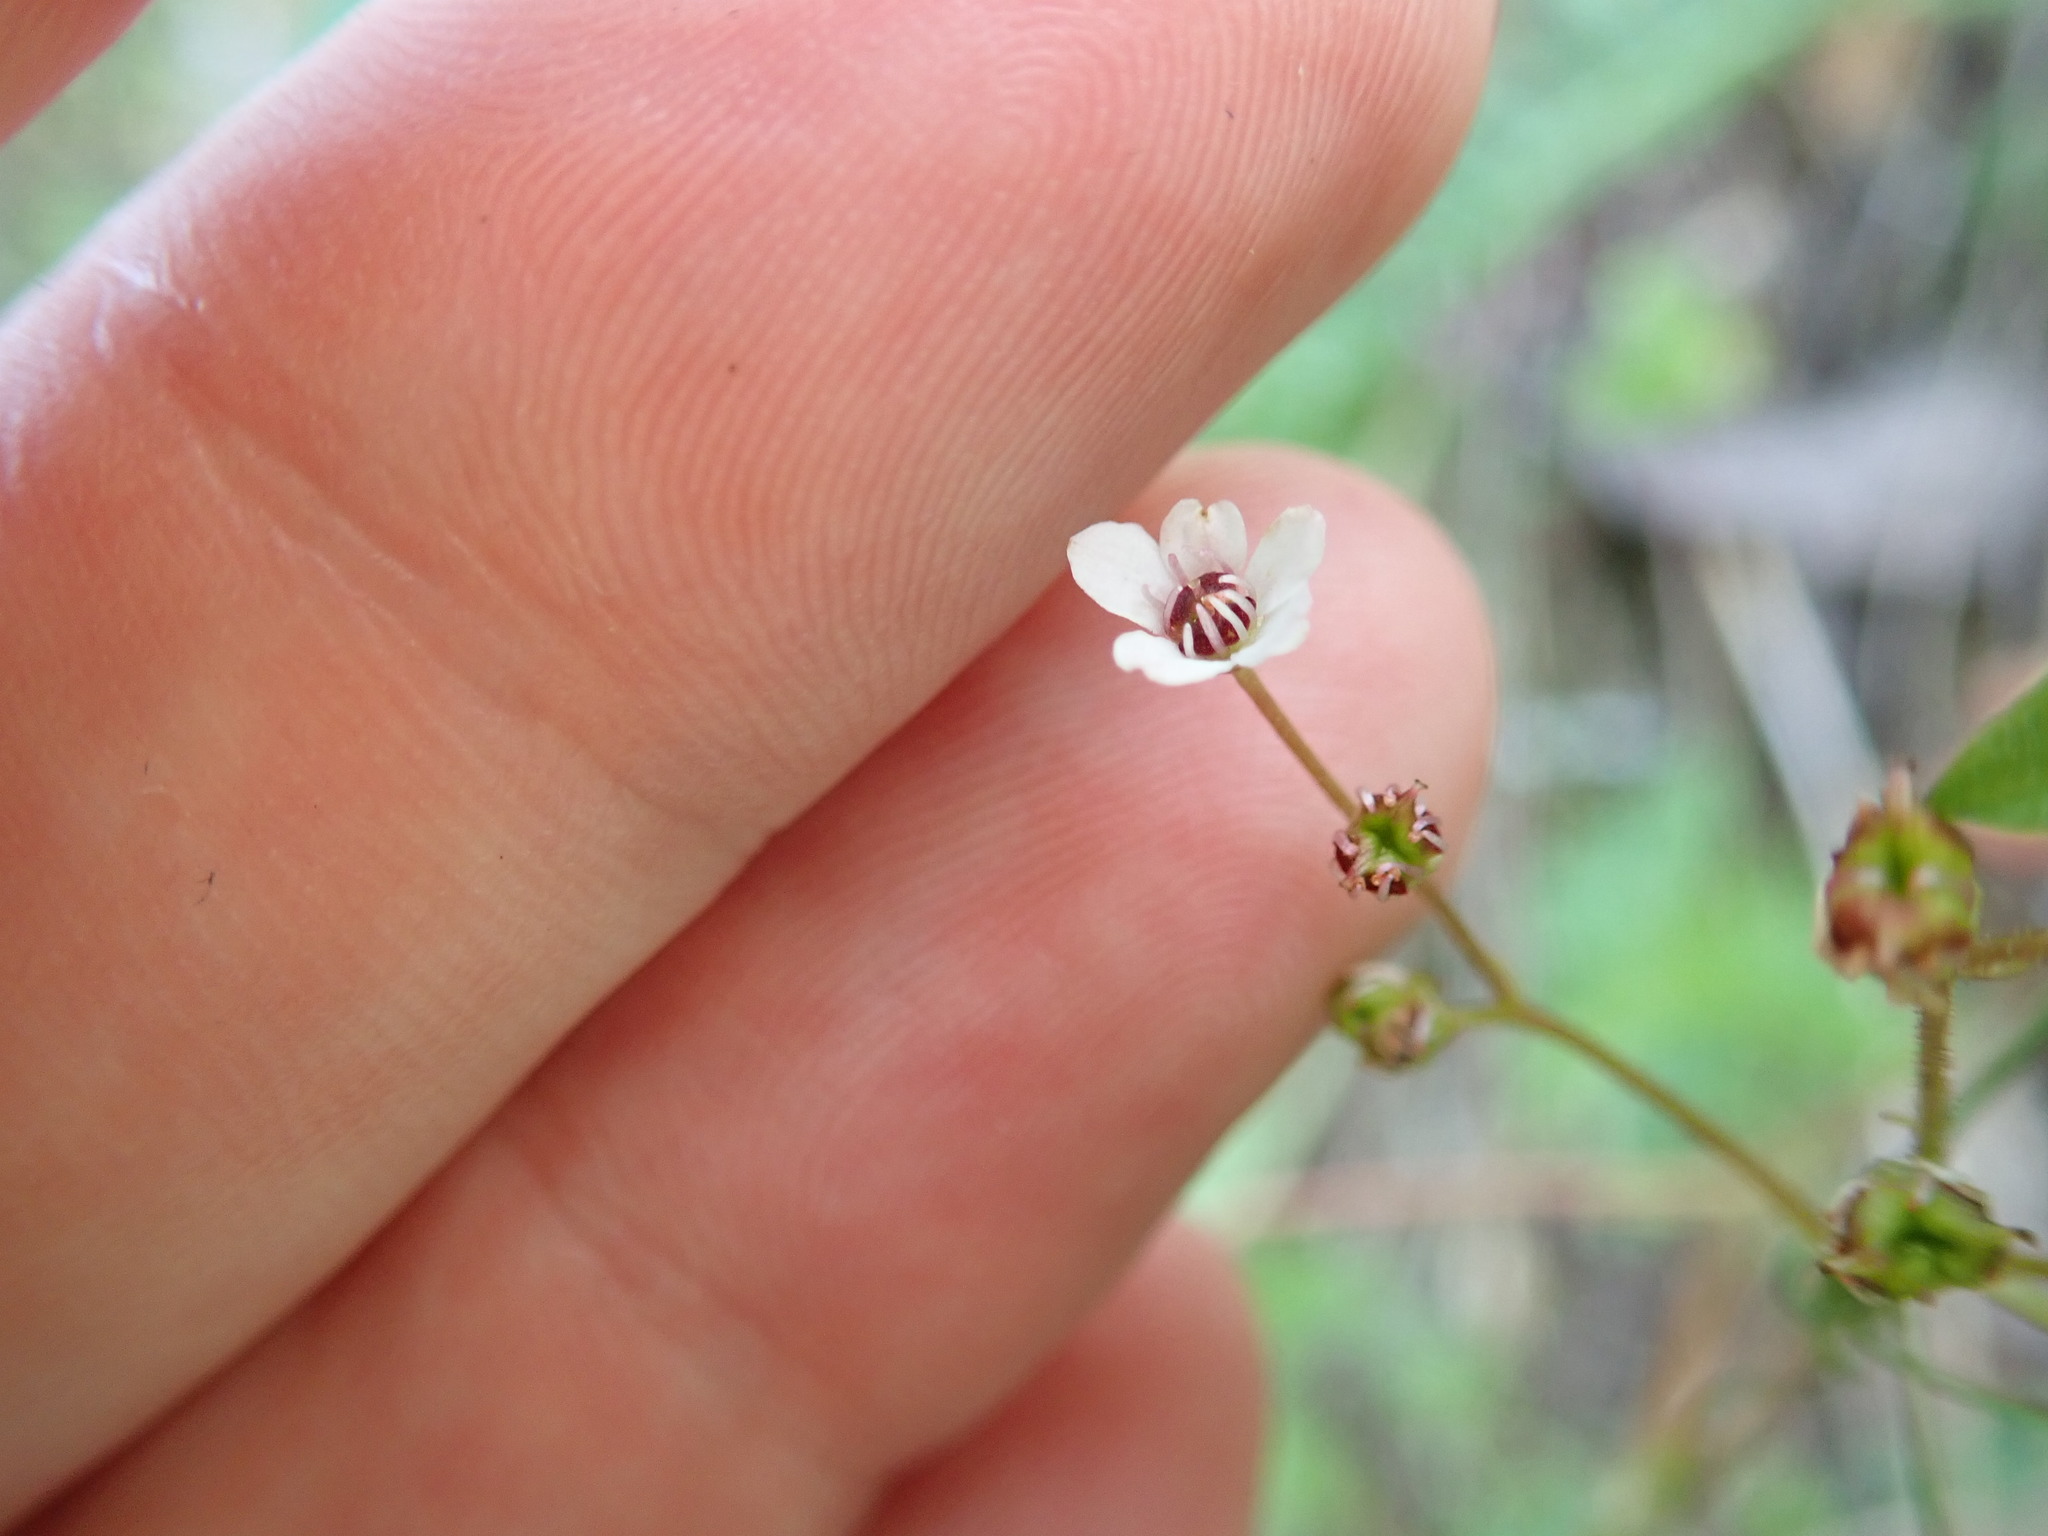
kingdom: Plantae
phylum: Tracheophyta
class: Magnoliopsida
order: Saxifragales
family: Saxifragaceae
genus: Micranthes
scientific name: Micranthes californica
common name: California saxifrage
